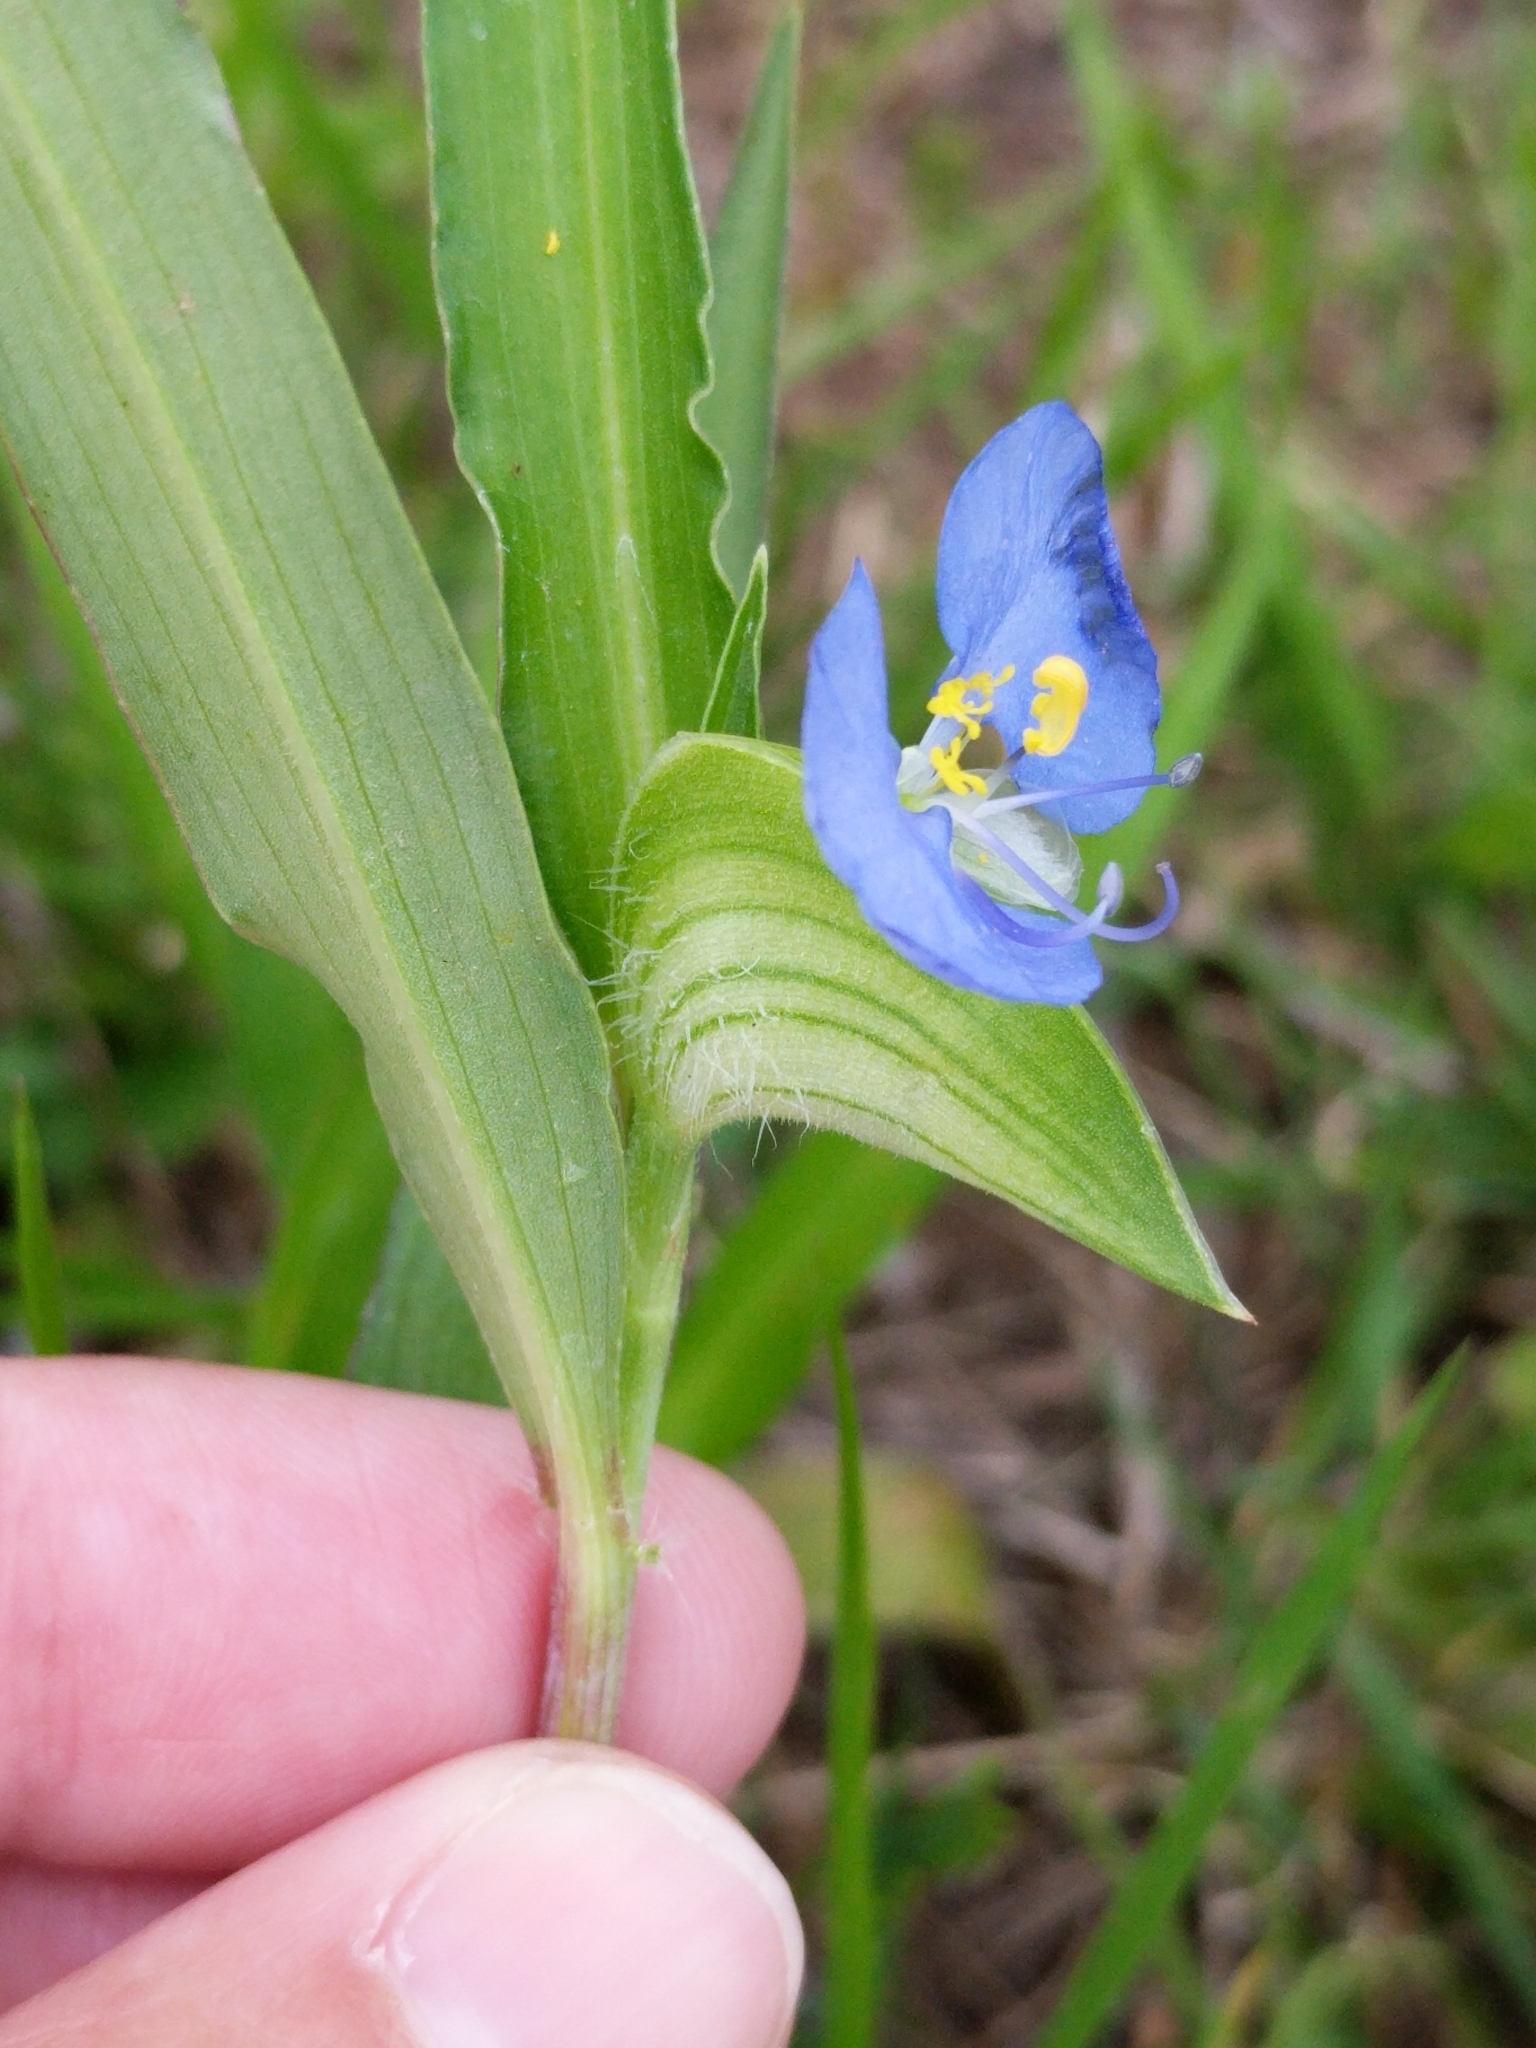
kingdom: Plantae
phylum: Tracheophyta
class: Liliopsida
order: Commelinales
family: Commelinaceae
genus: Commelina
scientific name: Commelina erecta
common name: Blousel blommetjie
